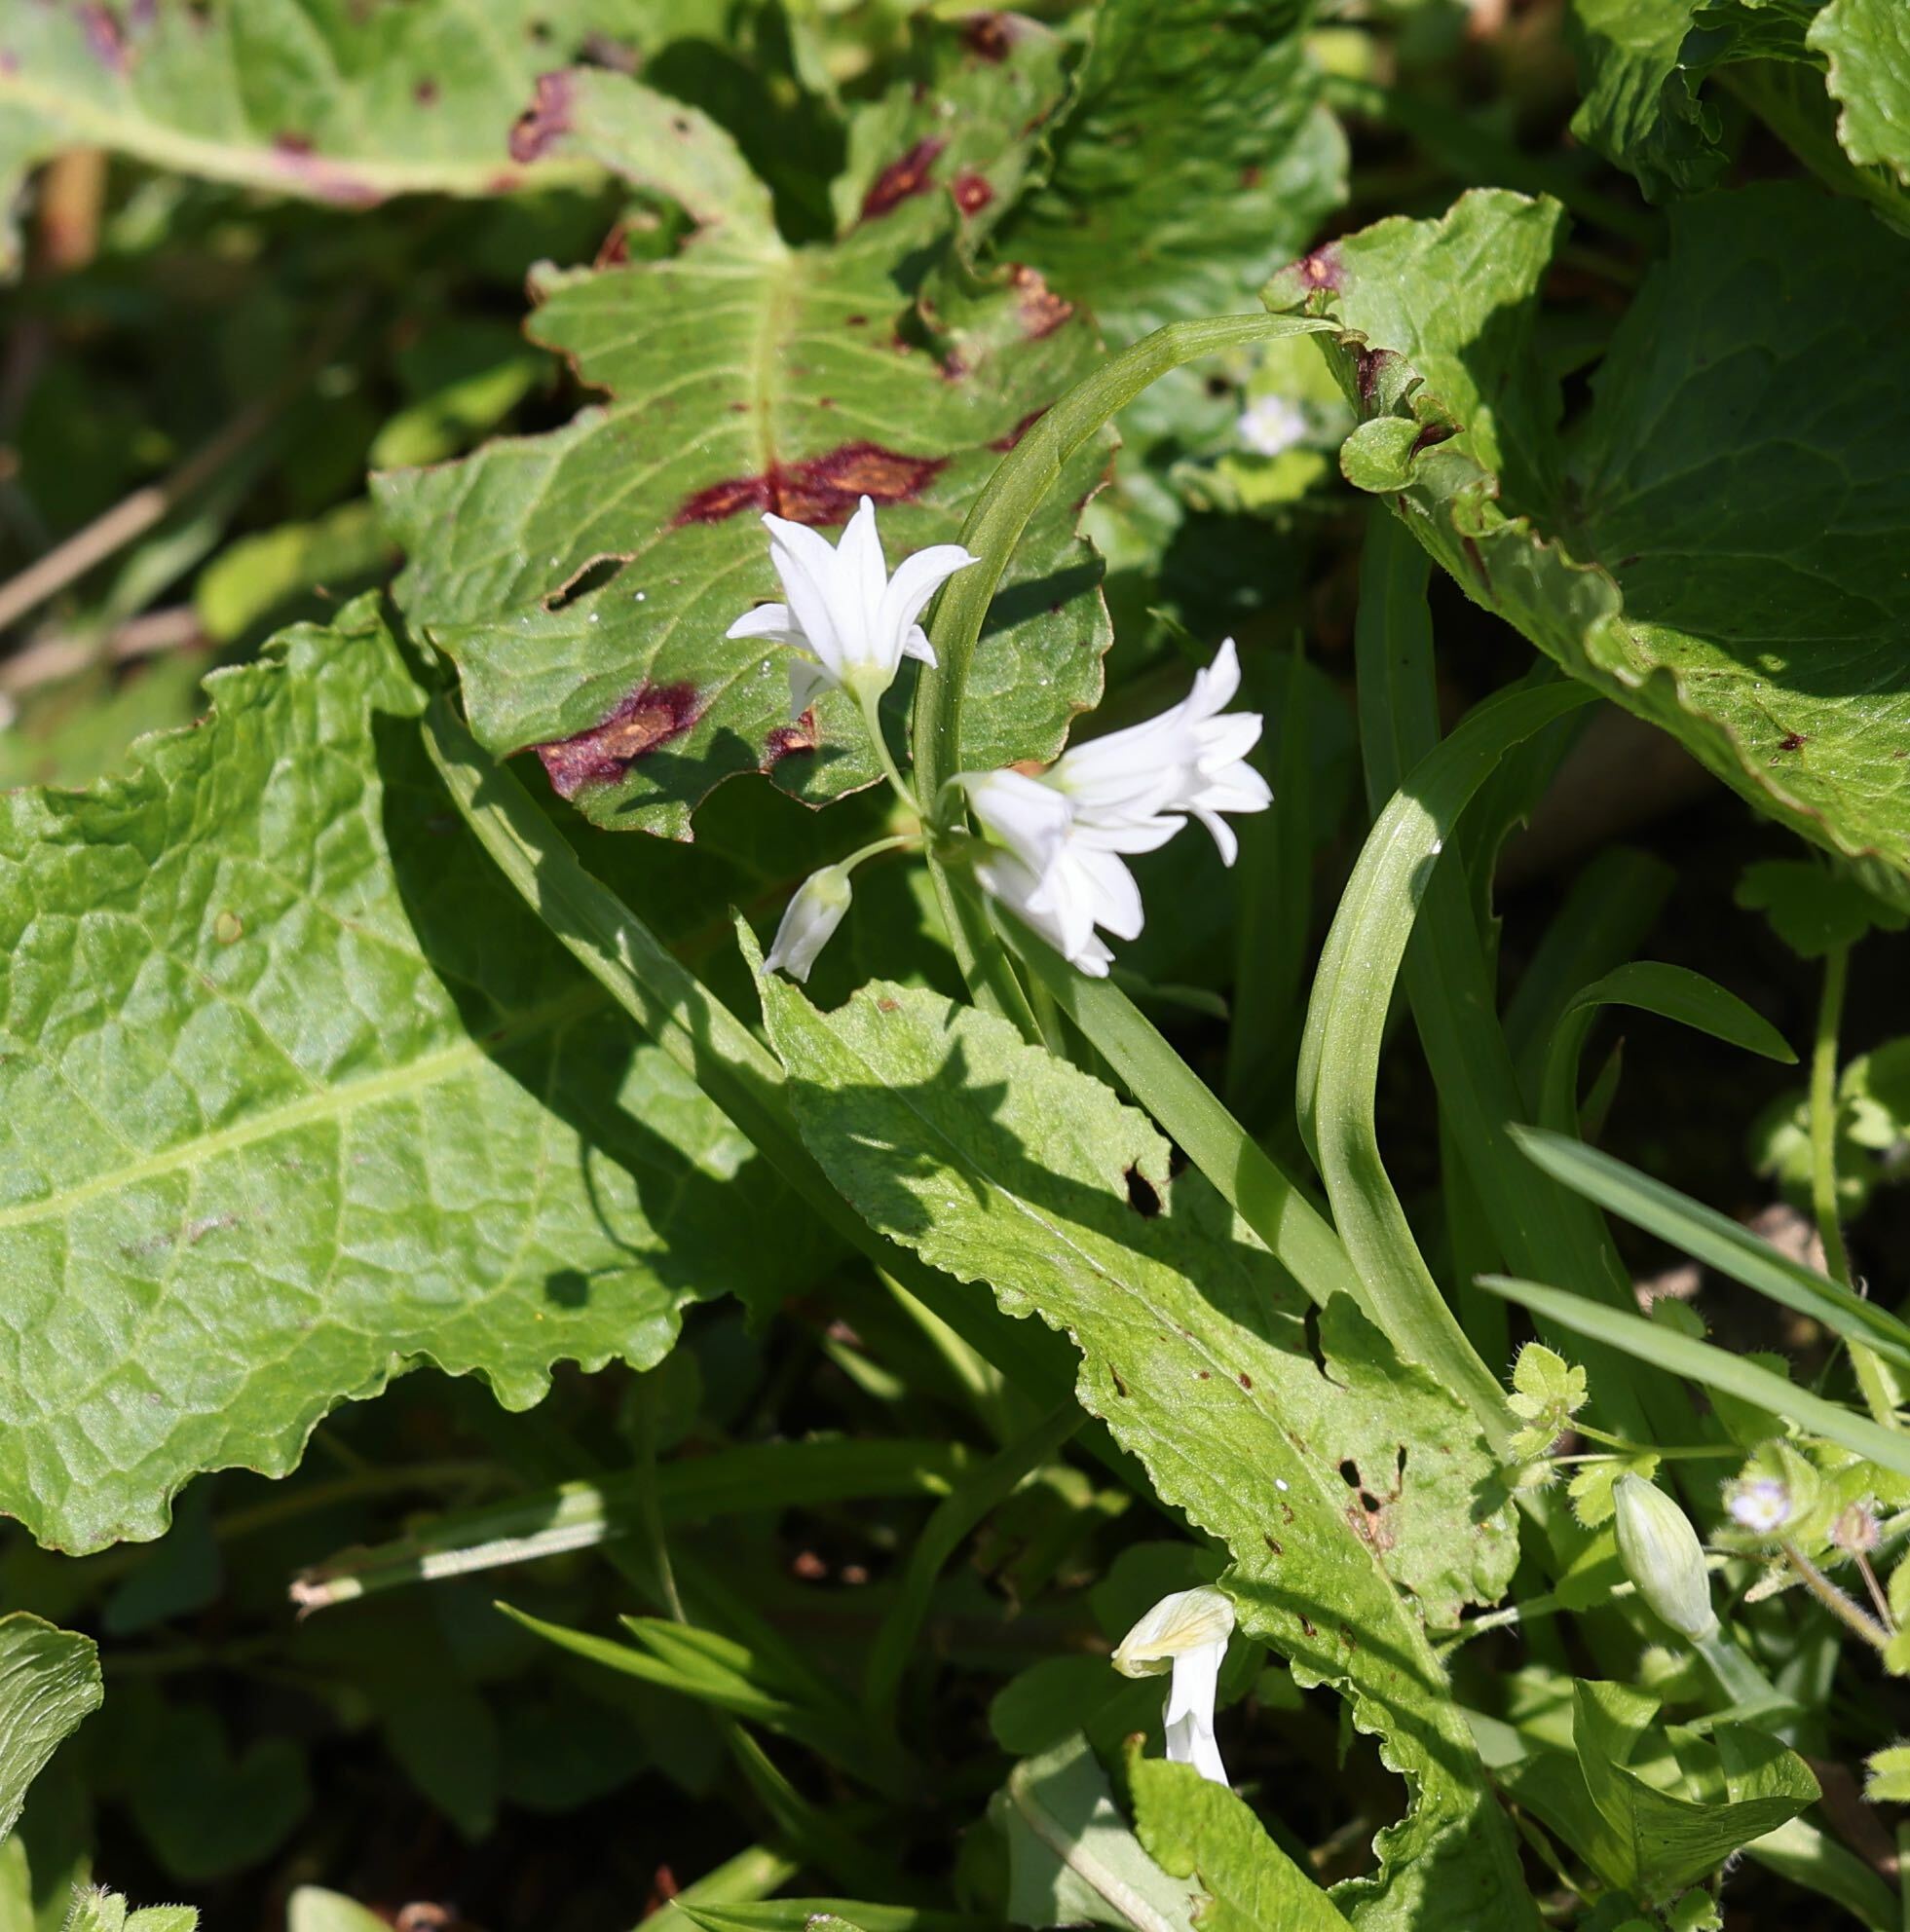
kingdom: Plantae
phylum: Tracheophyta
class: Liliopsida
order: Asparagales
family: Amaryllidaceae
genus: Allium
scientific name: Allium triquetrum
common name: Three-cornered garlic
